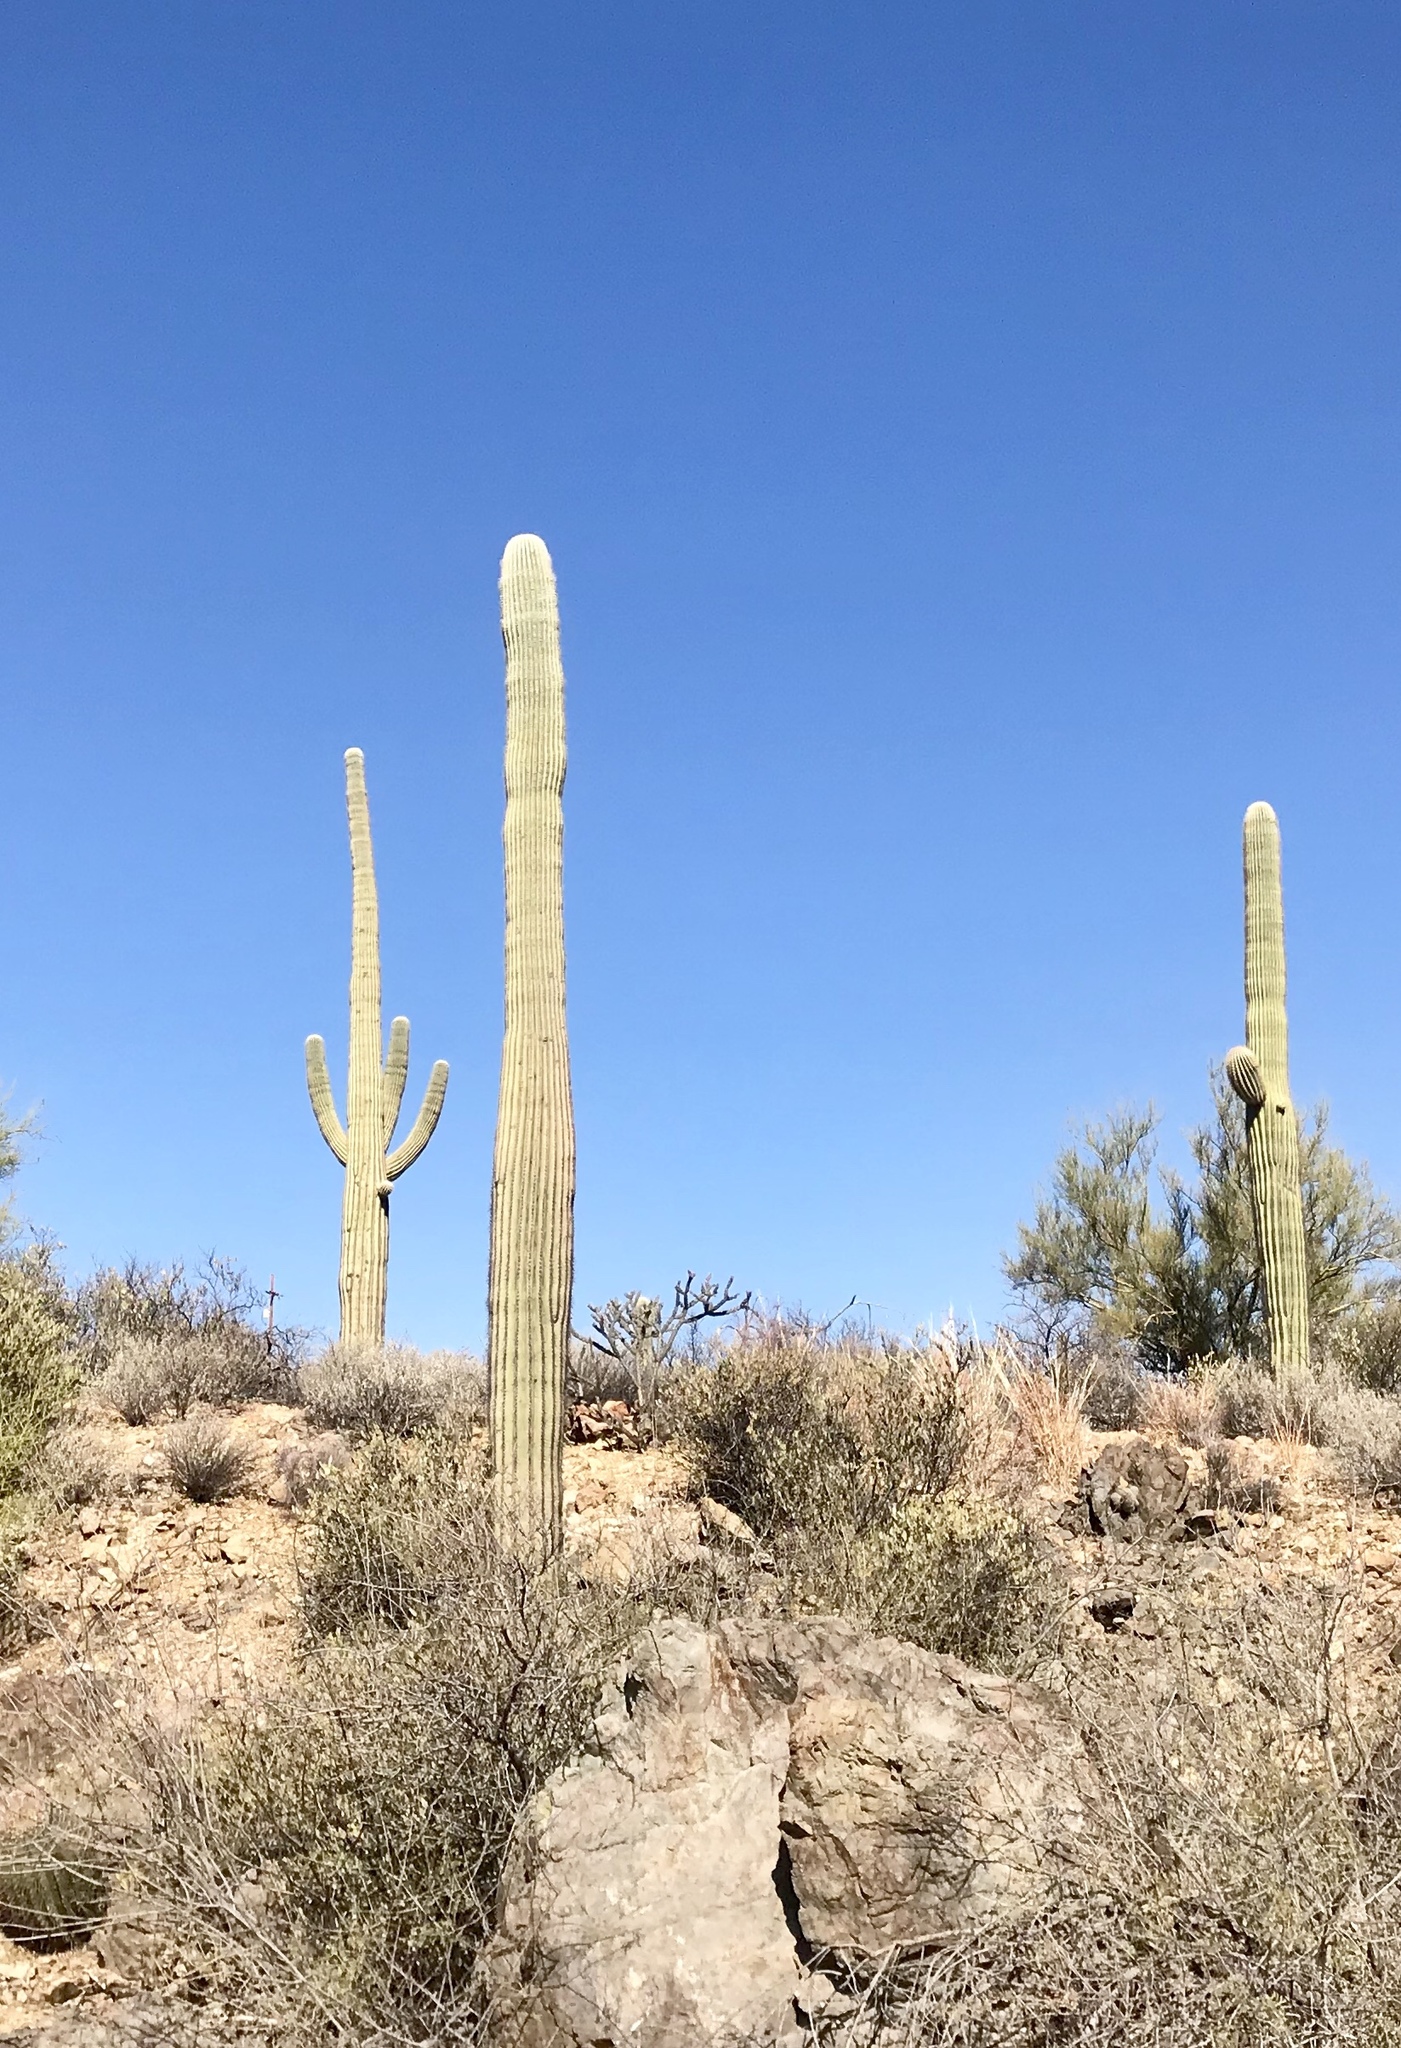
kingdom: Plantae
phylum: Tracheophyta
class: Magnoliopsida
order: Caryophyllales
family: Cactaceae
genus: Carnegiea
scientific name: Carnegiea gigantea
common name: Saguaro
